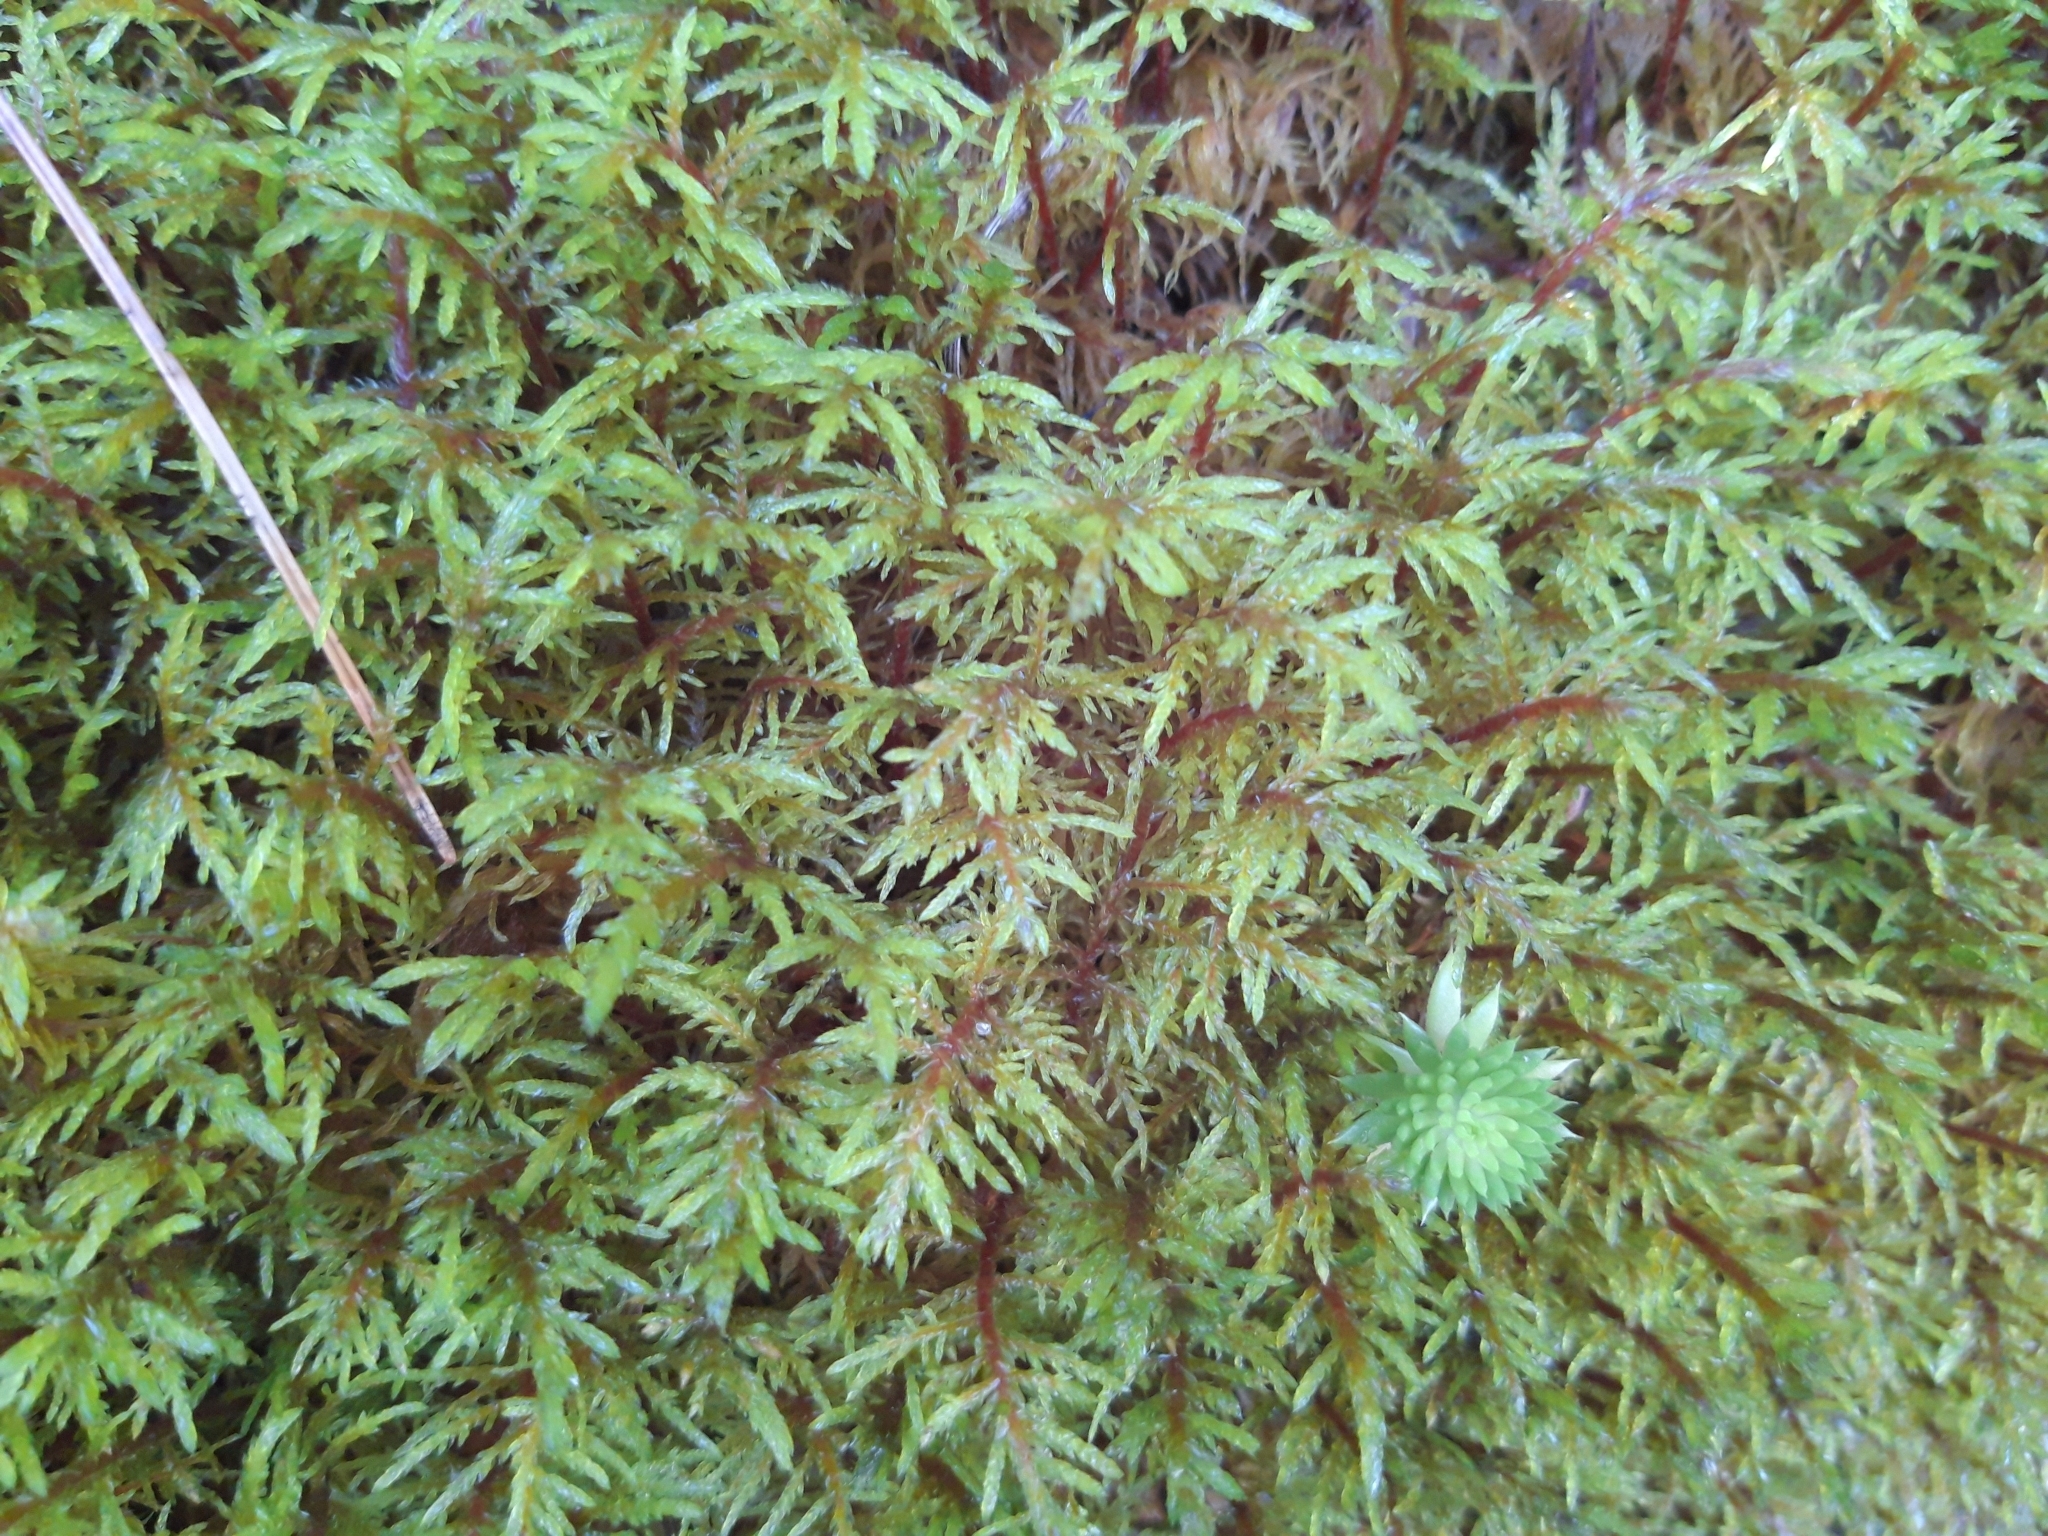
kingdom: Plantae
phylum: Bryophyta
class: Bryopsida
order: Hypnales
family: Hylocomiaceae
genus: Hylocomium
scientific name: Hylocomium splendens
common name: Stairstep moss
